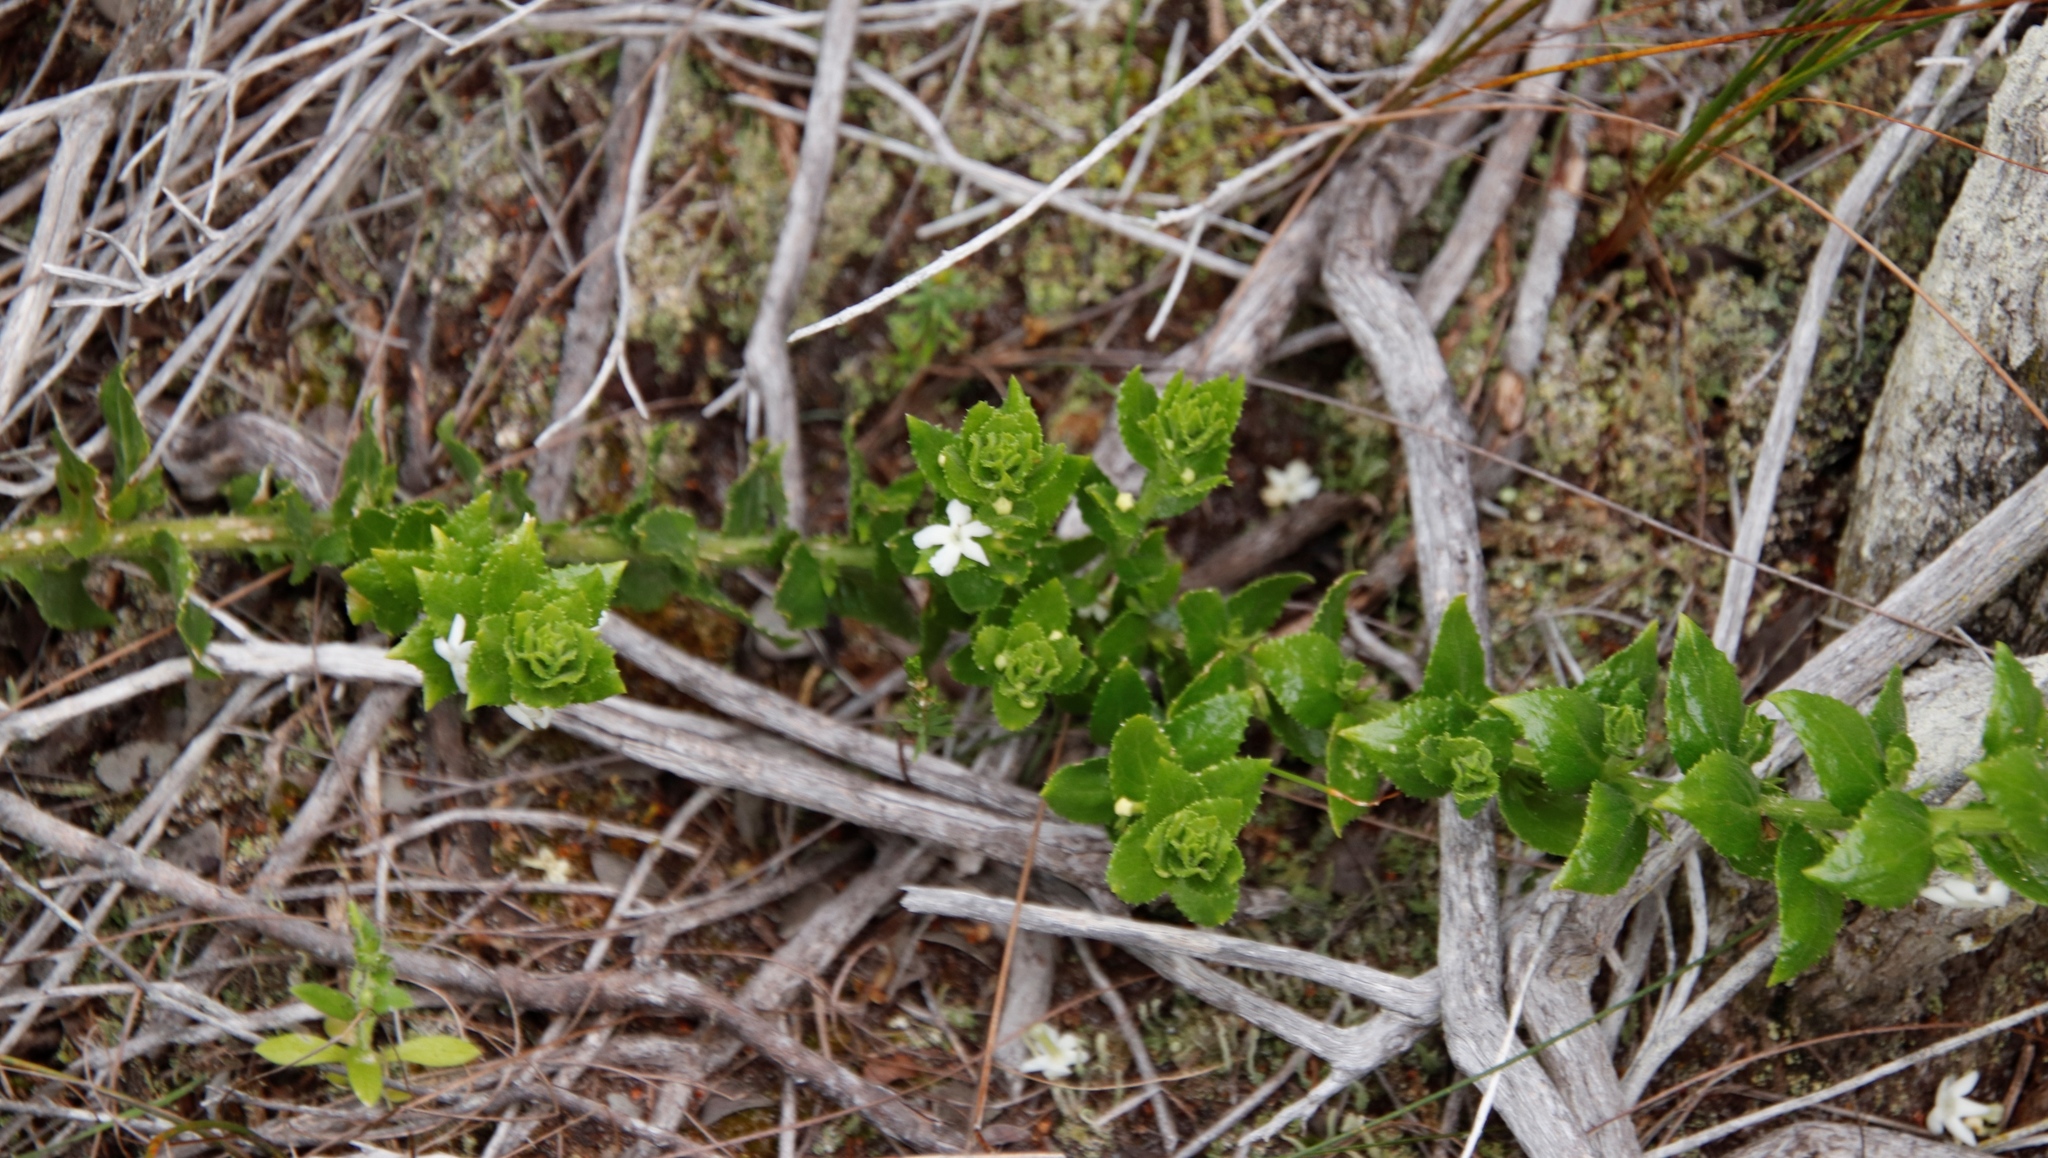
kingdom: Plantae
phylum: Tracheophyta
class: Magnoliopsida
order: Lamiales
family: Scrophulariaceae
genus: Oftia
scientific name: Oftia africana
